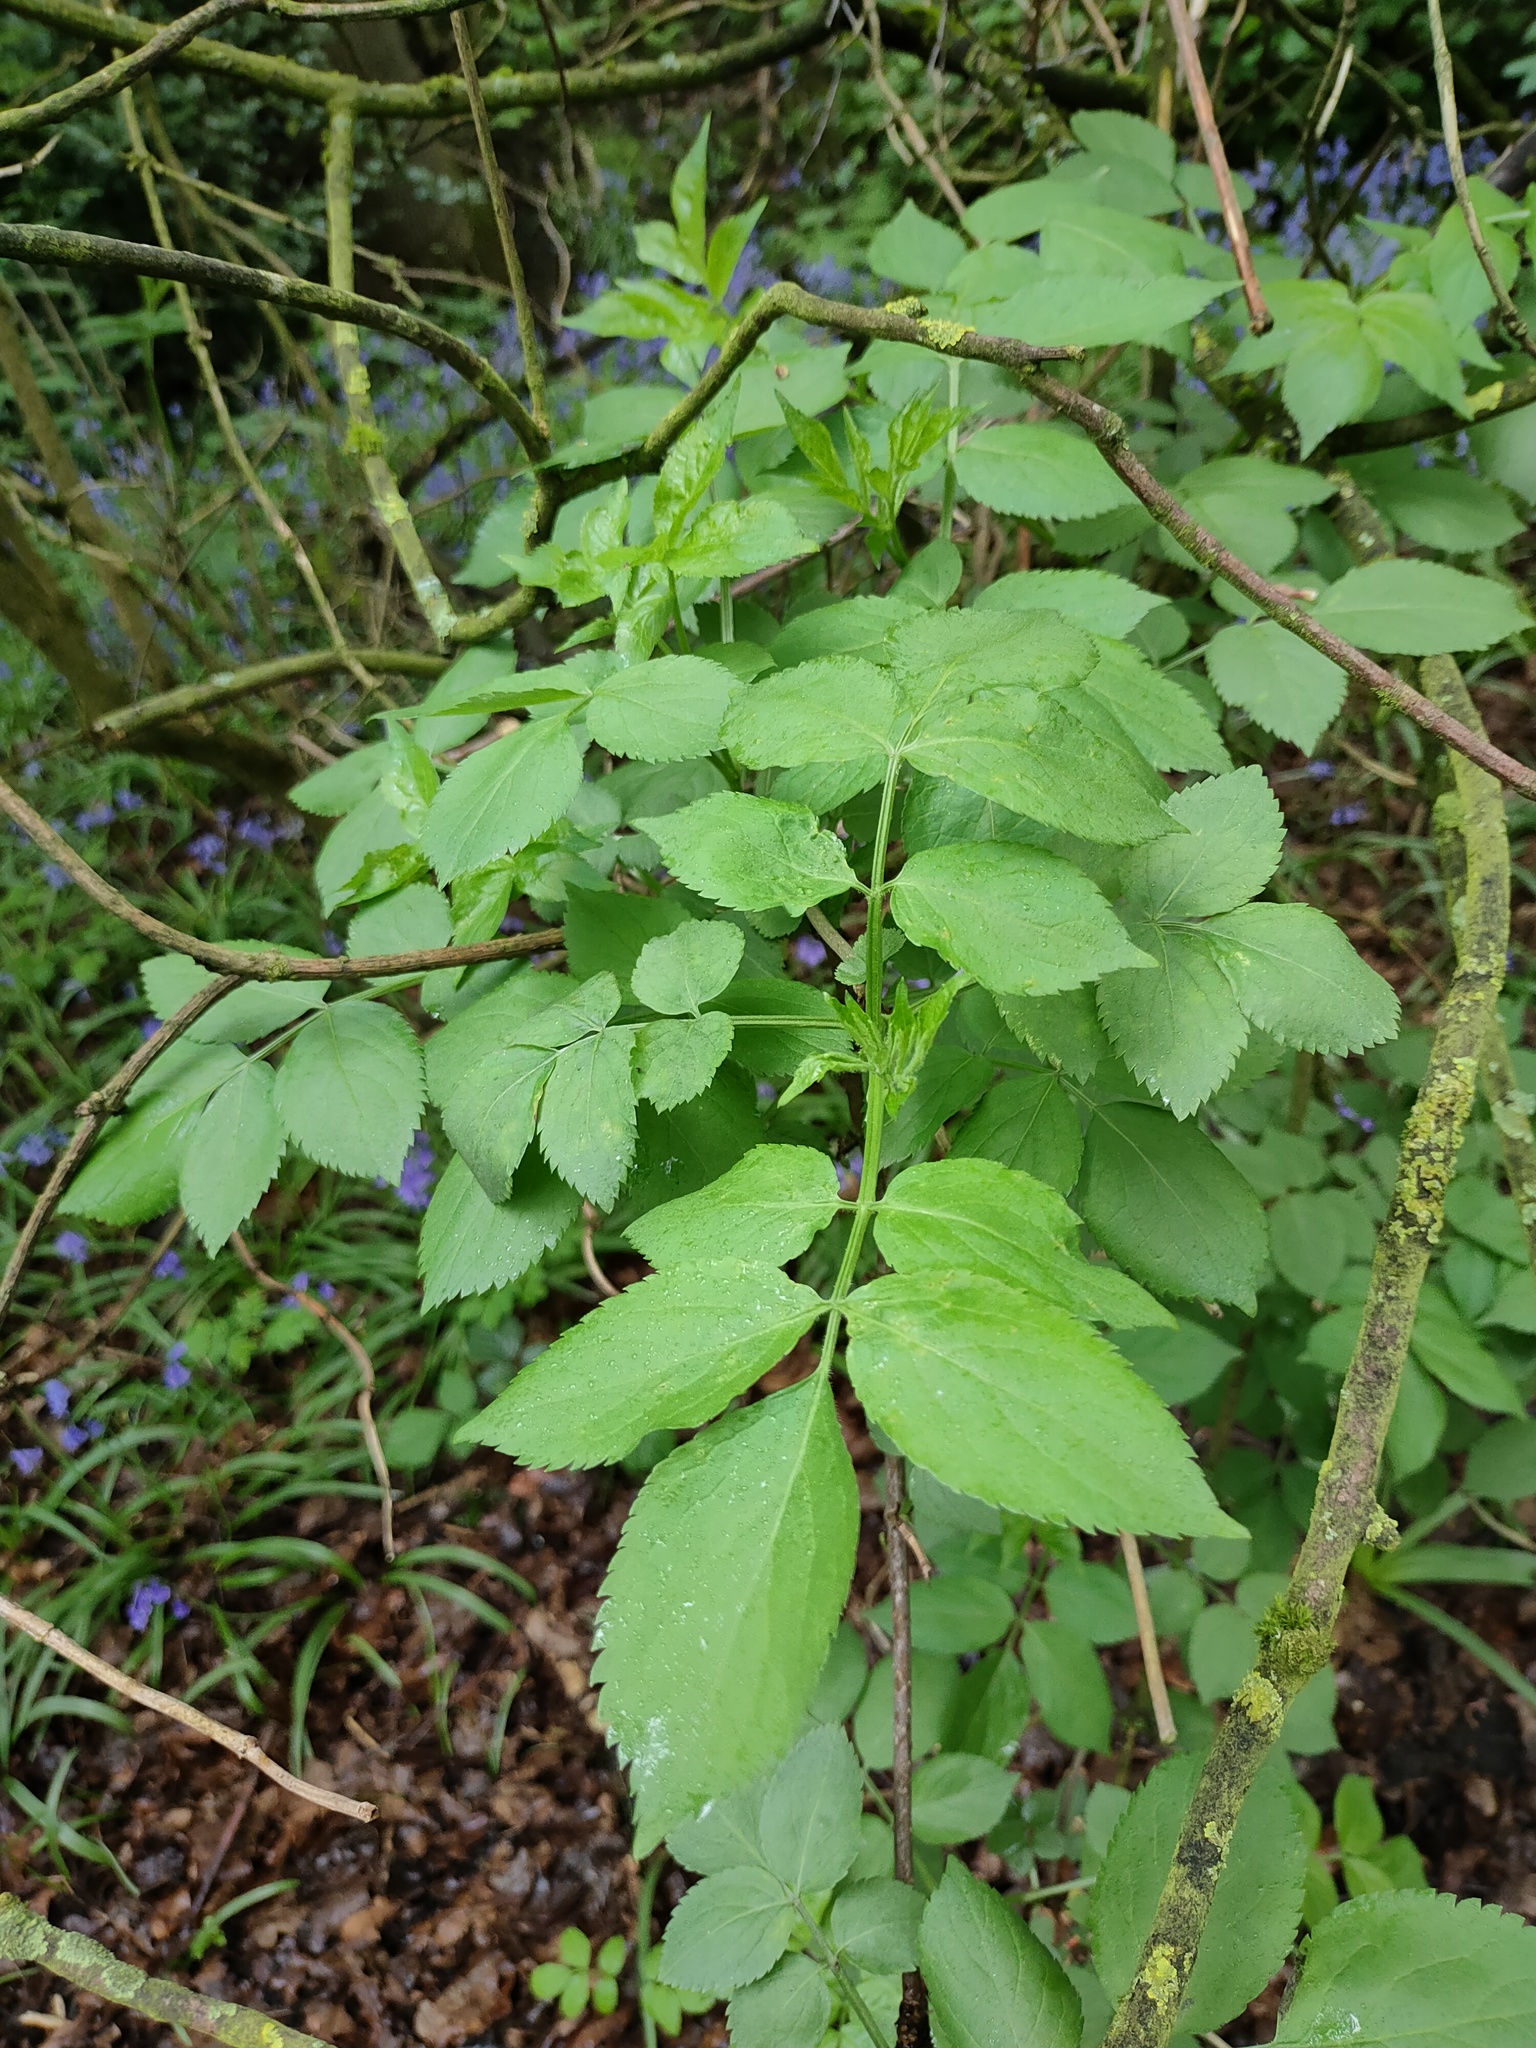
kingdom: Plantae
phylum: Tracheophyta
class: Magnoliopsida
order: Dipsacales
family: Viburnaceae
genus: Sambucus
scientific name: Sambucus nigra
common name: Elder
